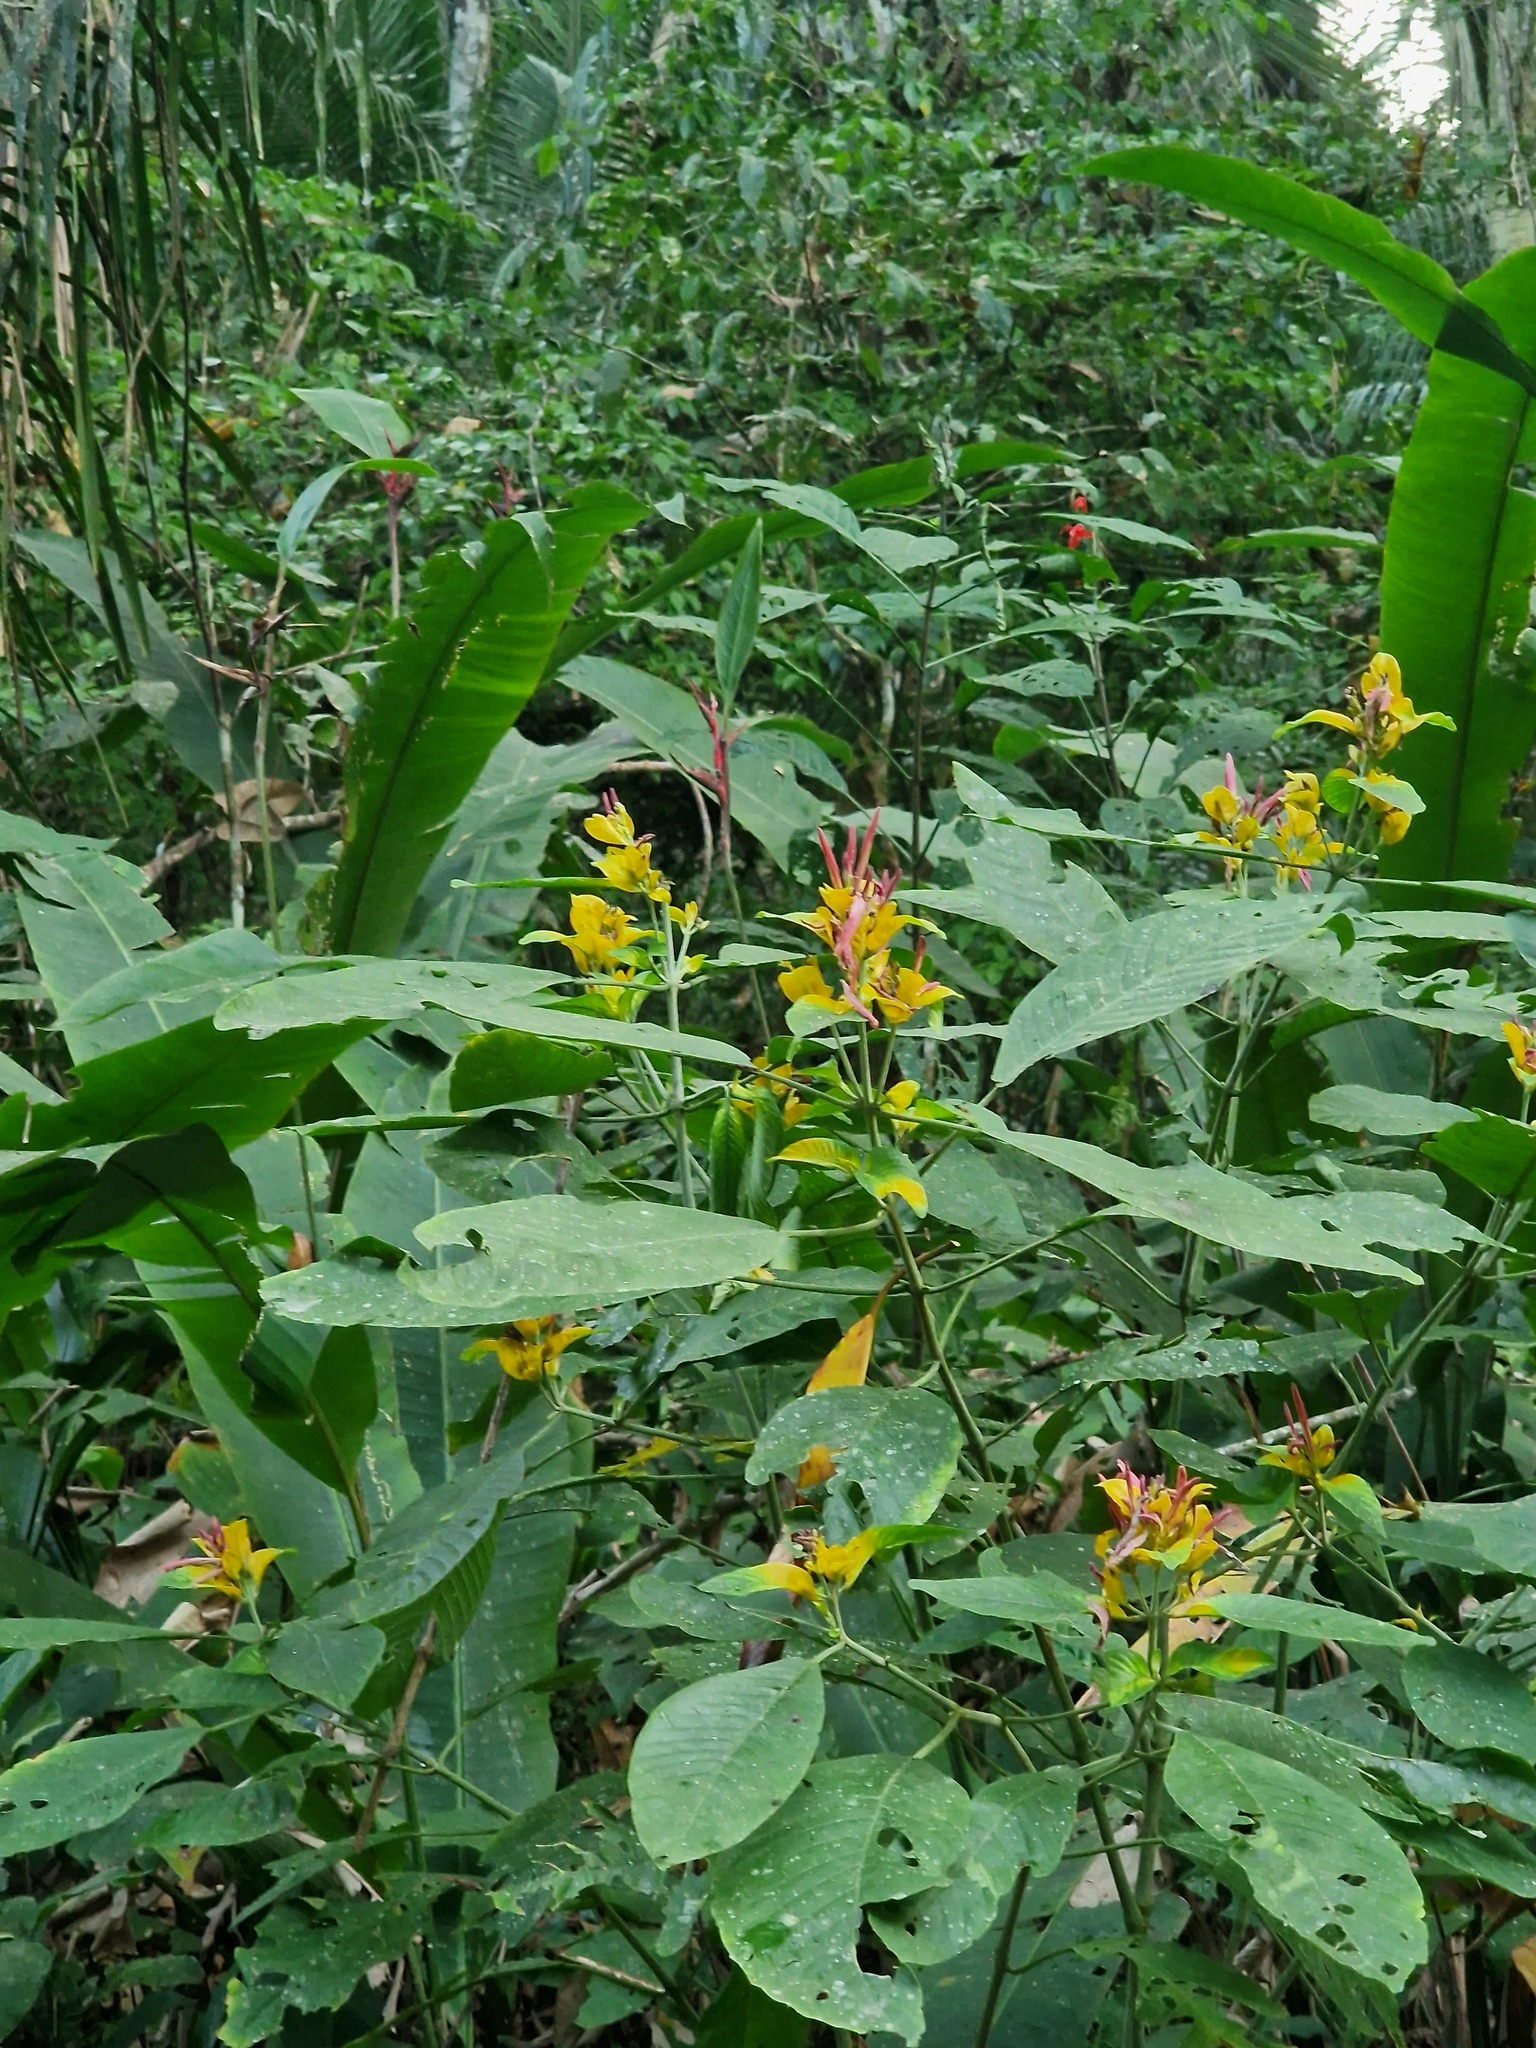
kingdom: Plantae
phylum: Tracheophyta
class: Magnoliopsida
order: Lamiales
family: Acanthaceae
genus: Dianthera
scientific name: Dianthera appendiculata
